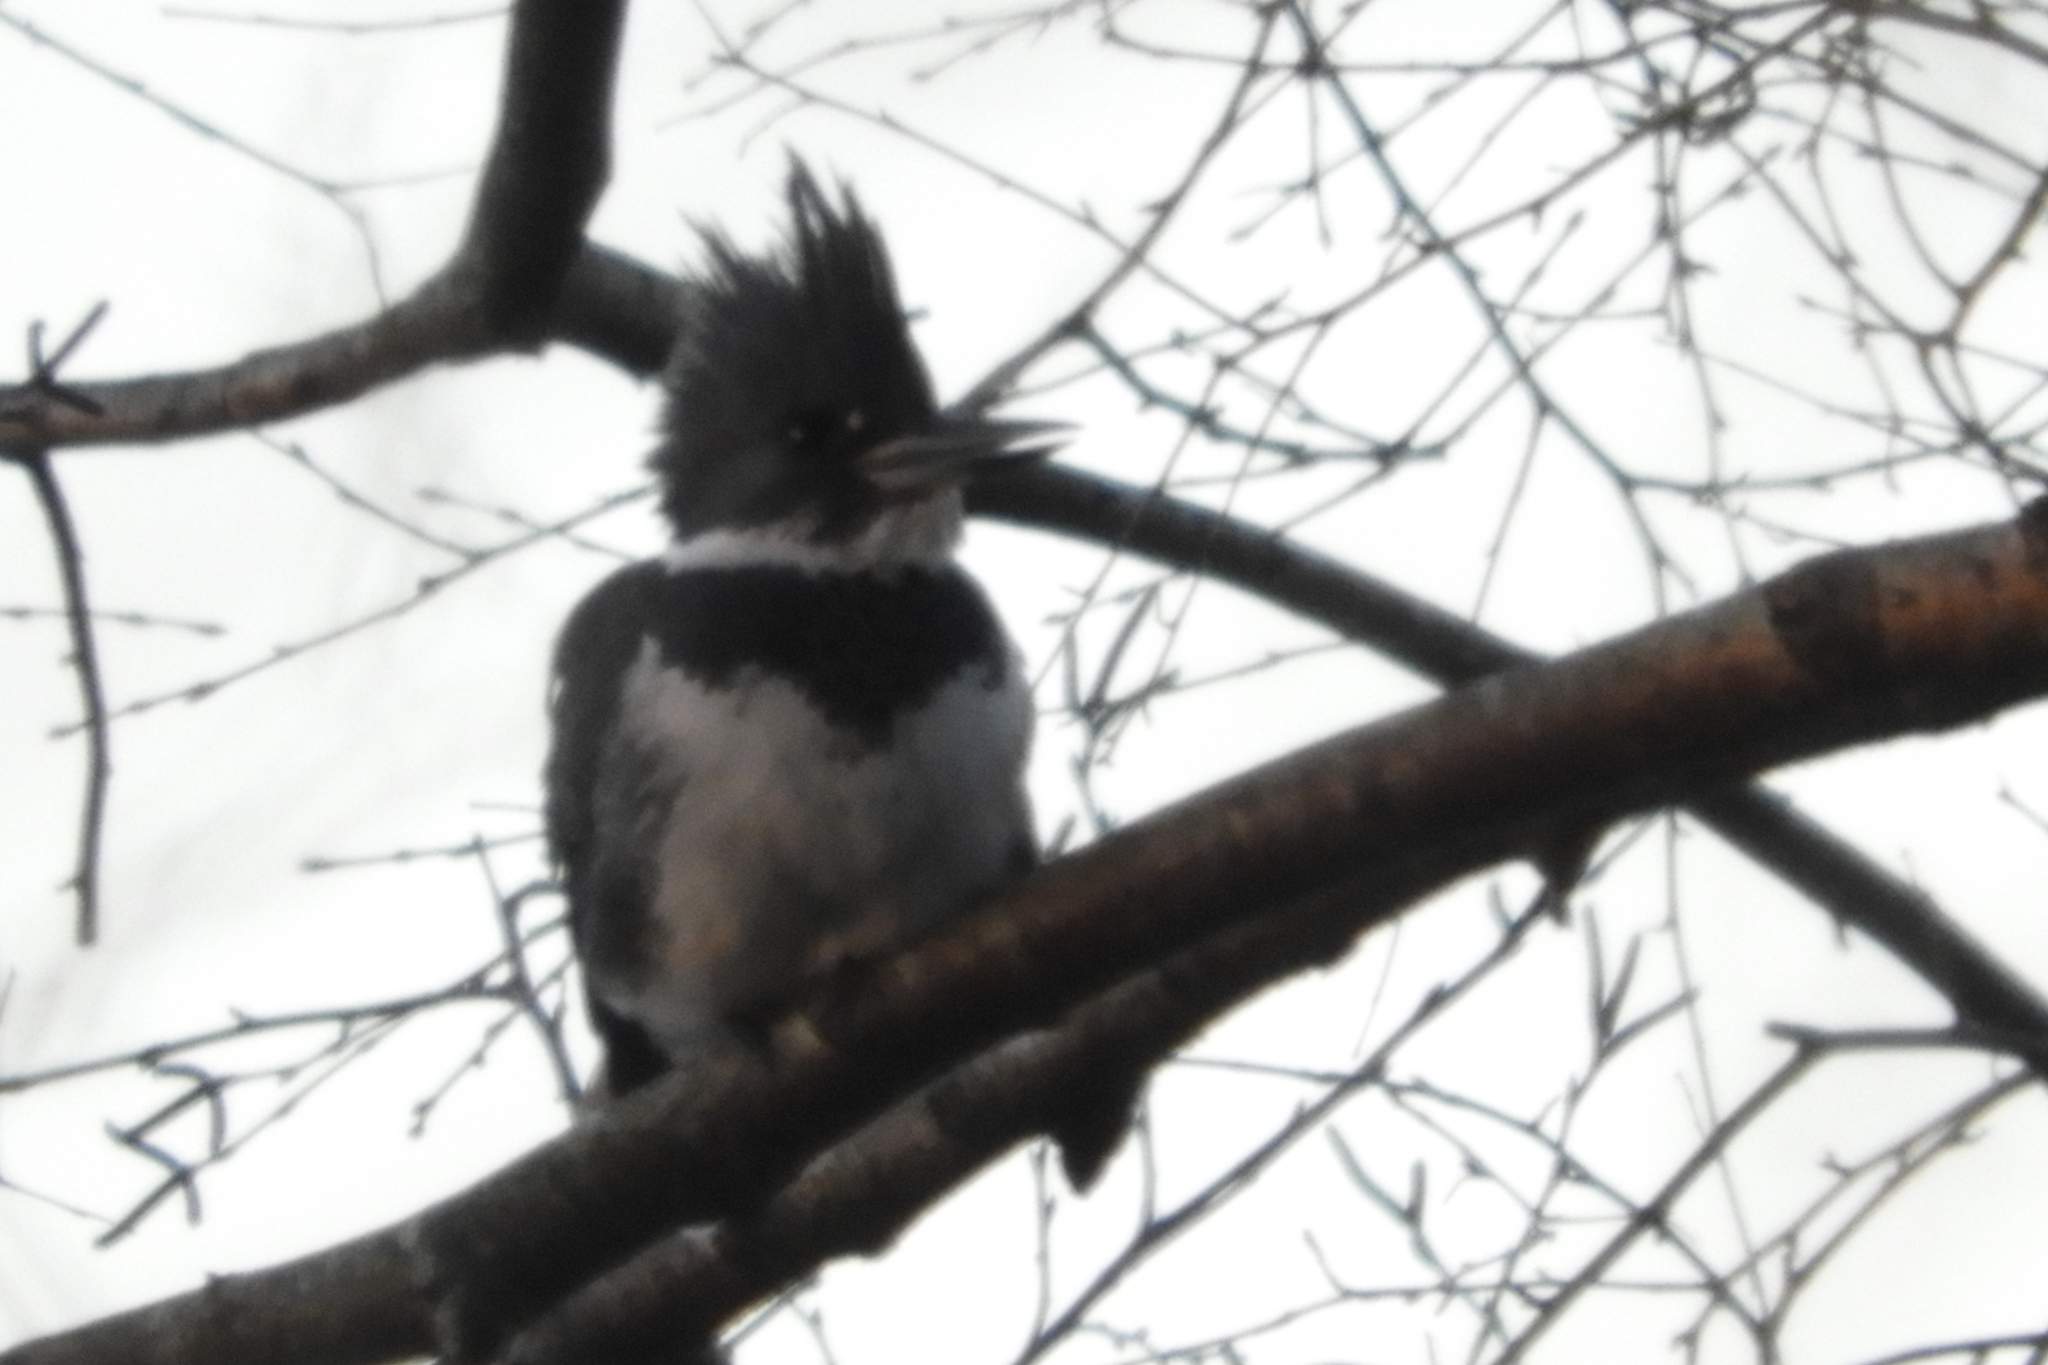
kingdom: Animalia
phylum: Chordata
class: Aves
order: Coraciiformes
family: Alcedinidae
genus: Megaceryle
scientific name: Megaceryle alcyon
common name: Belted kingfisher
